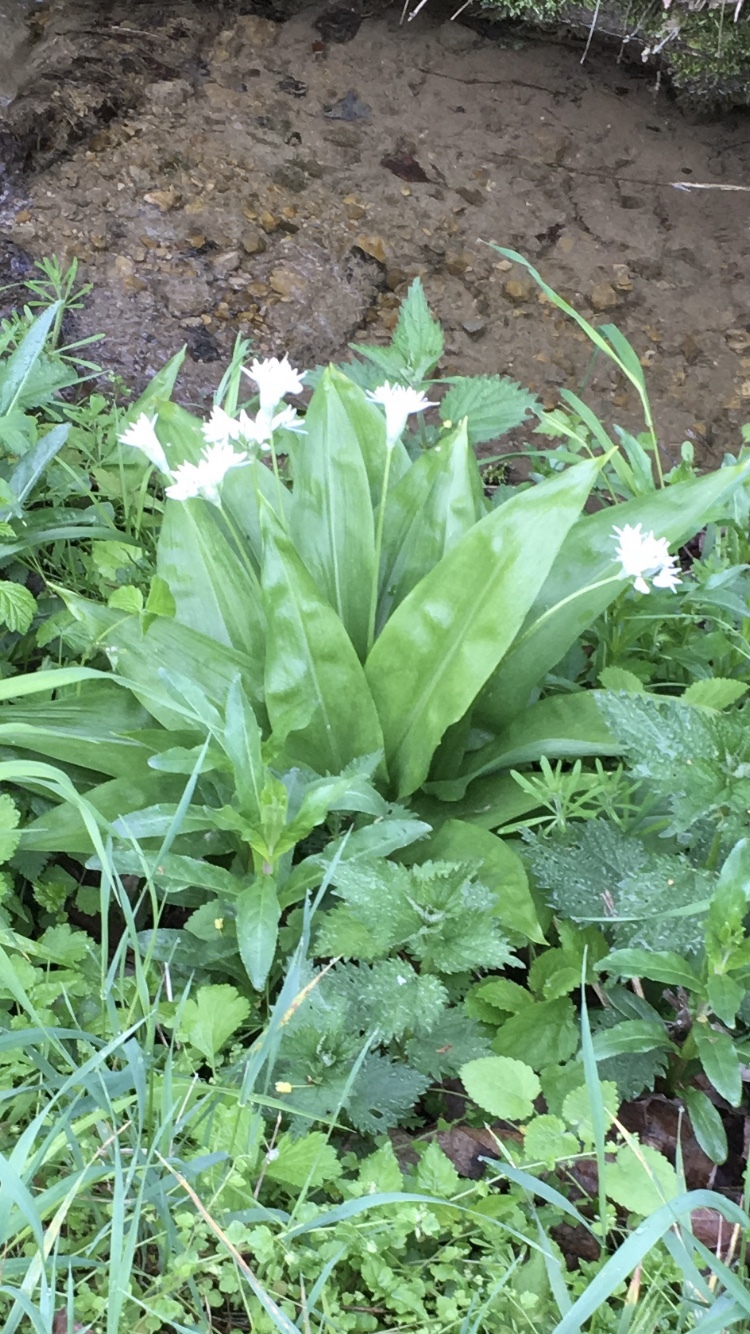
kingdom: Plantae
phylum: Tracheophyta
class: Liliopsida
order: Asparagales
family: Amaryllidaceae
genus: Allium
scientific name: Allium ursinum
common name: Ramsons
